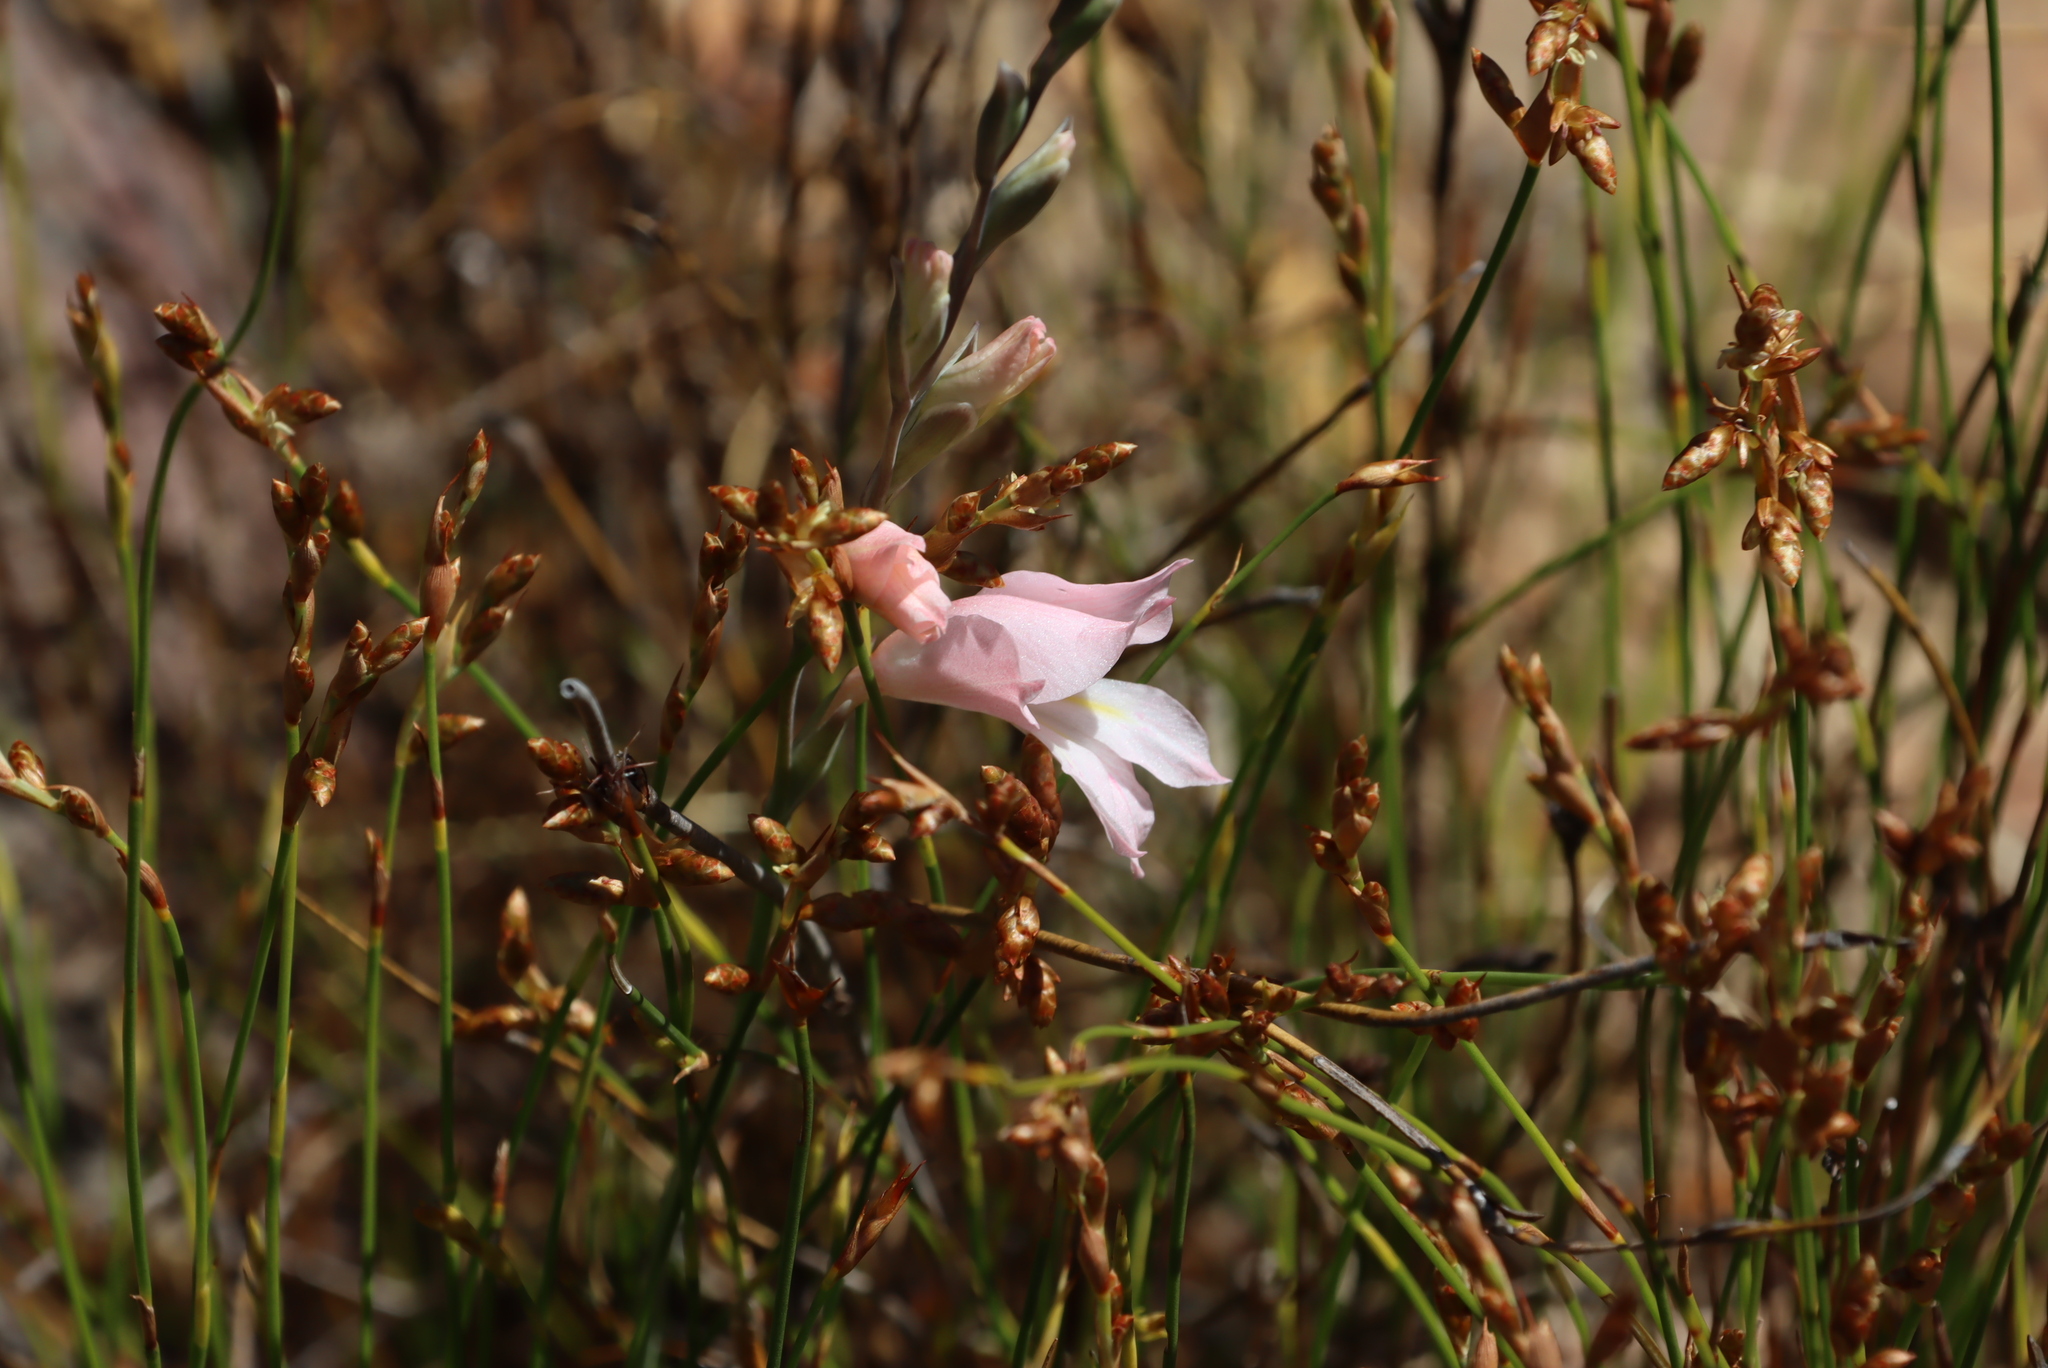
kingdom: Plantae
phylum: Tracheophyta
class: Liliopsida
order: Asparagales
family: Iridaceae
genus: Gladiolus
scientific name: Gladiolus brevifolius
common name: March pypie
